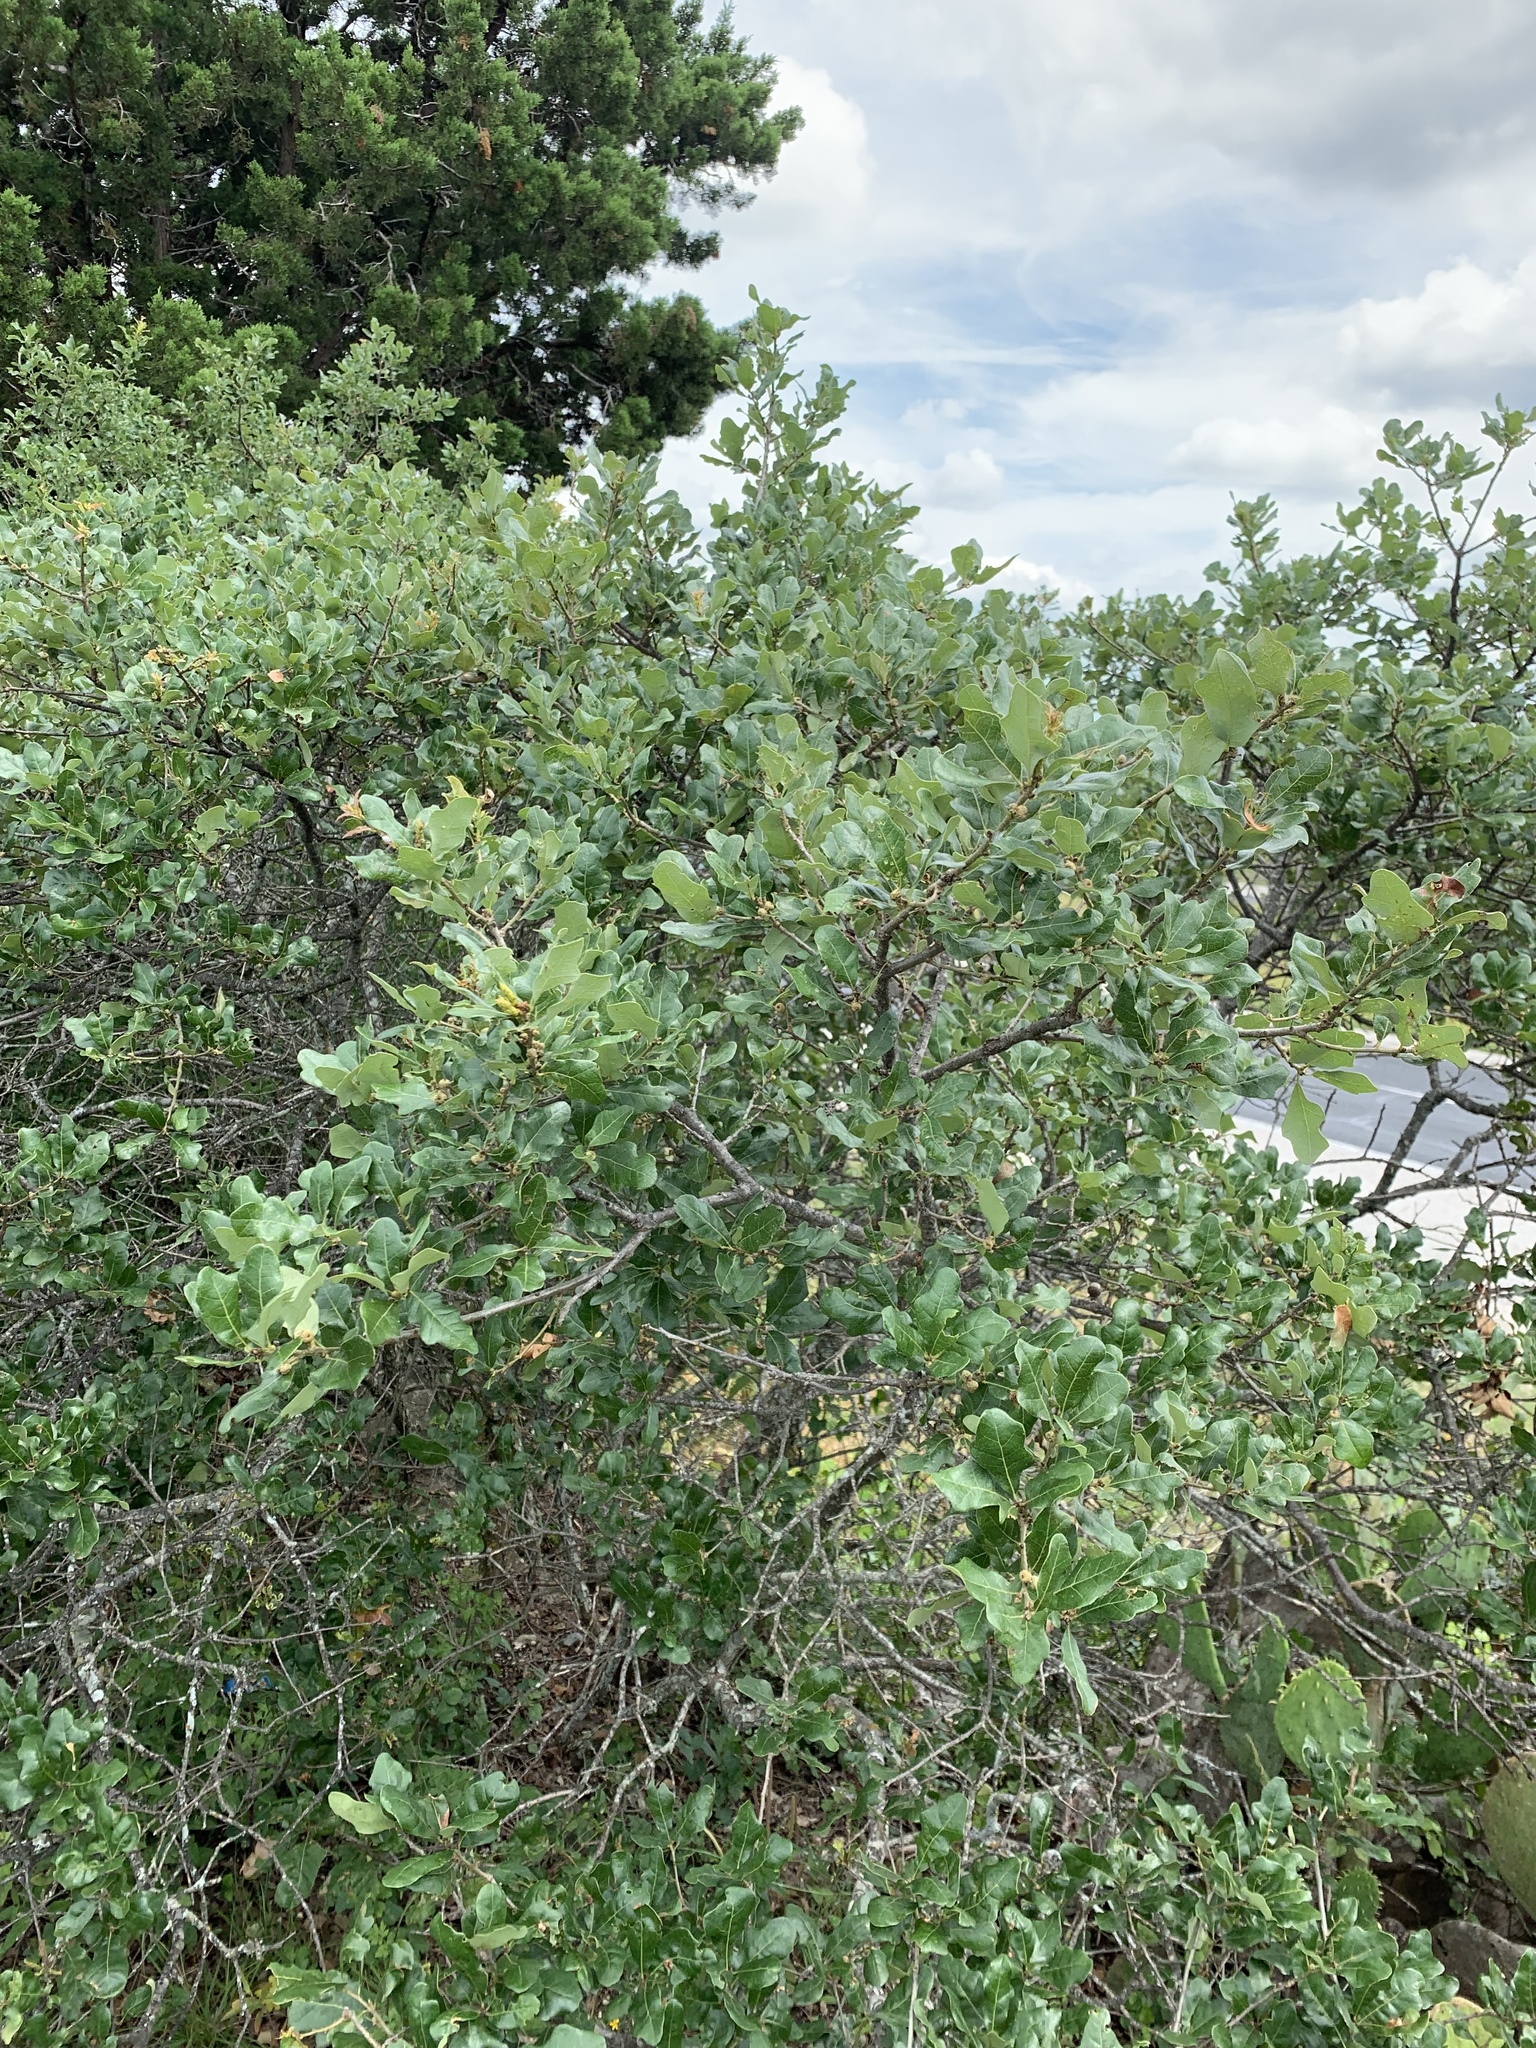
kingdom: Plantae
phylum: Tracheophyta
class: Magnoliopsida
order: Fagales
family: Fagaceae
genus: Quercus
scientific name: Quercus sinuata
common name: Durand oak
